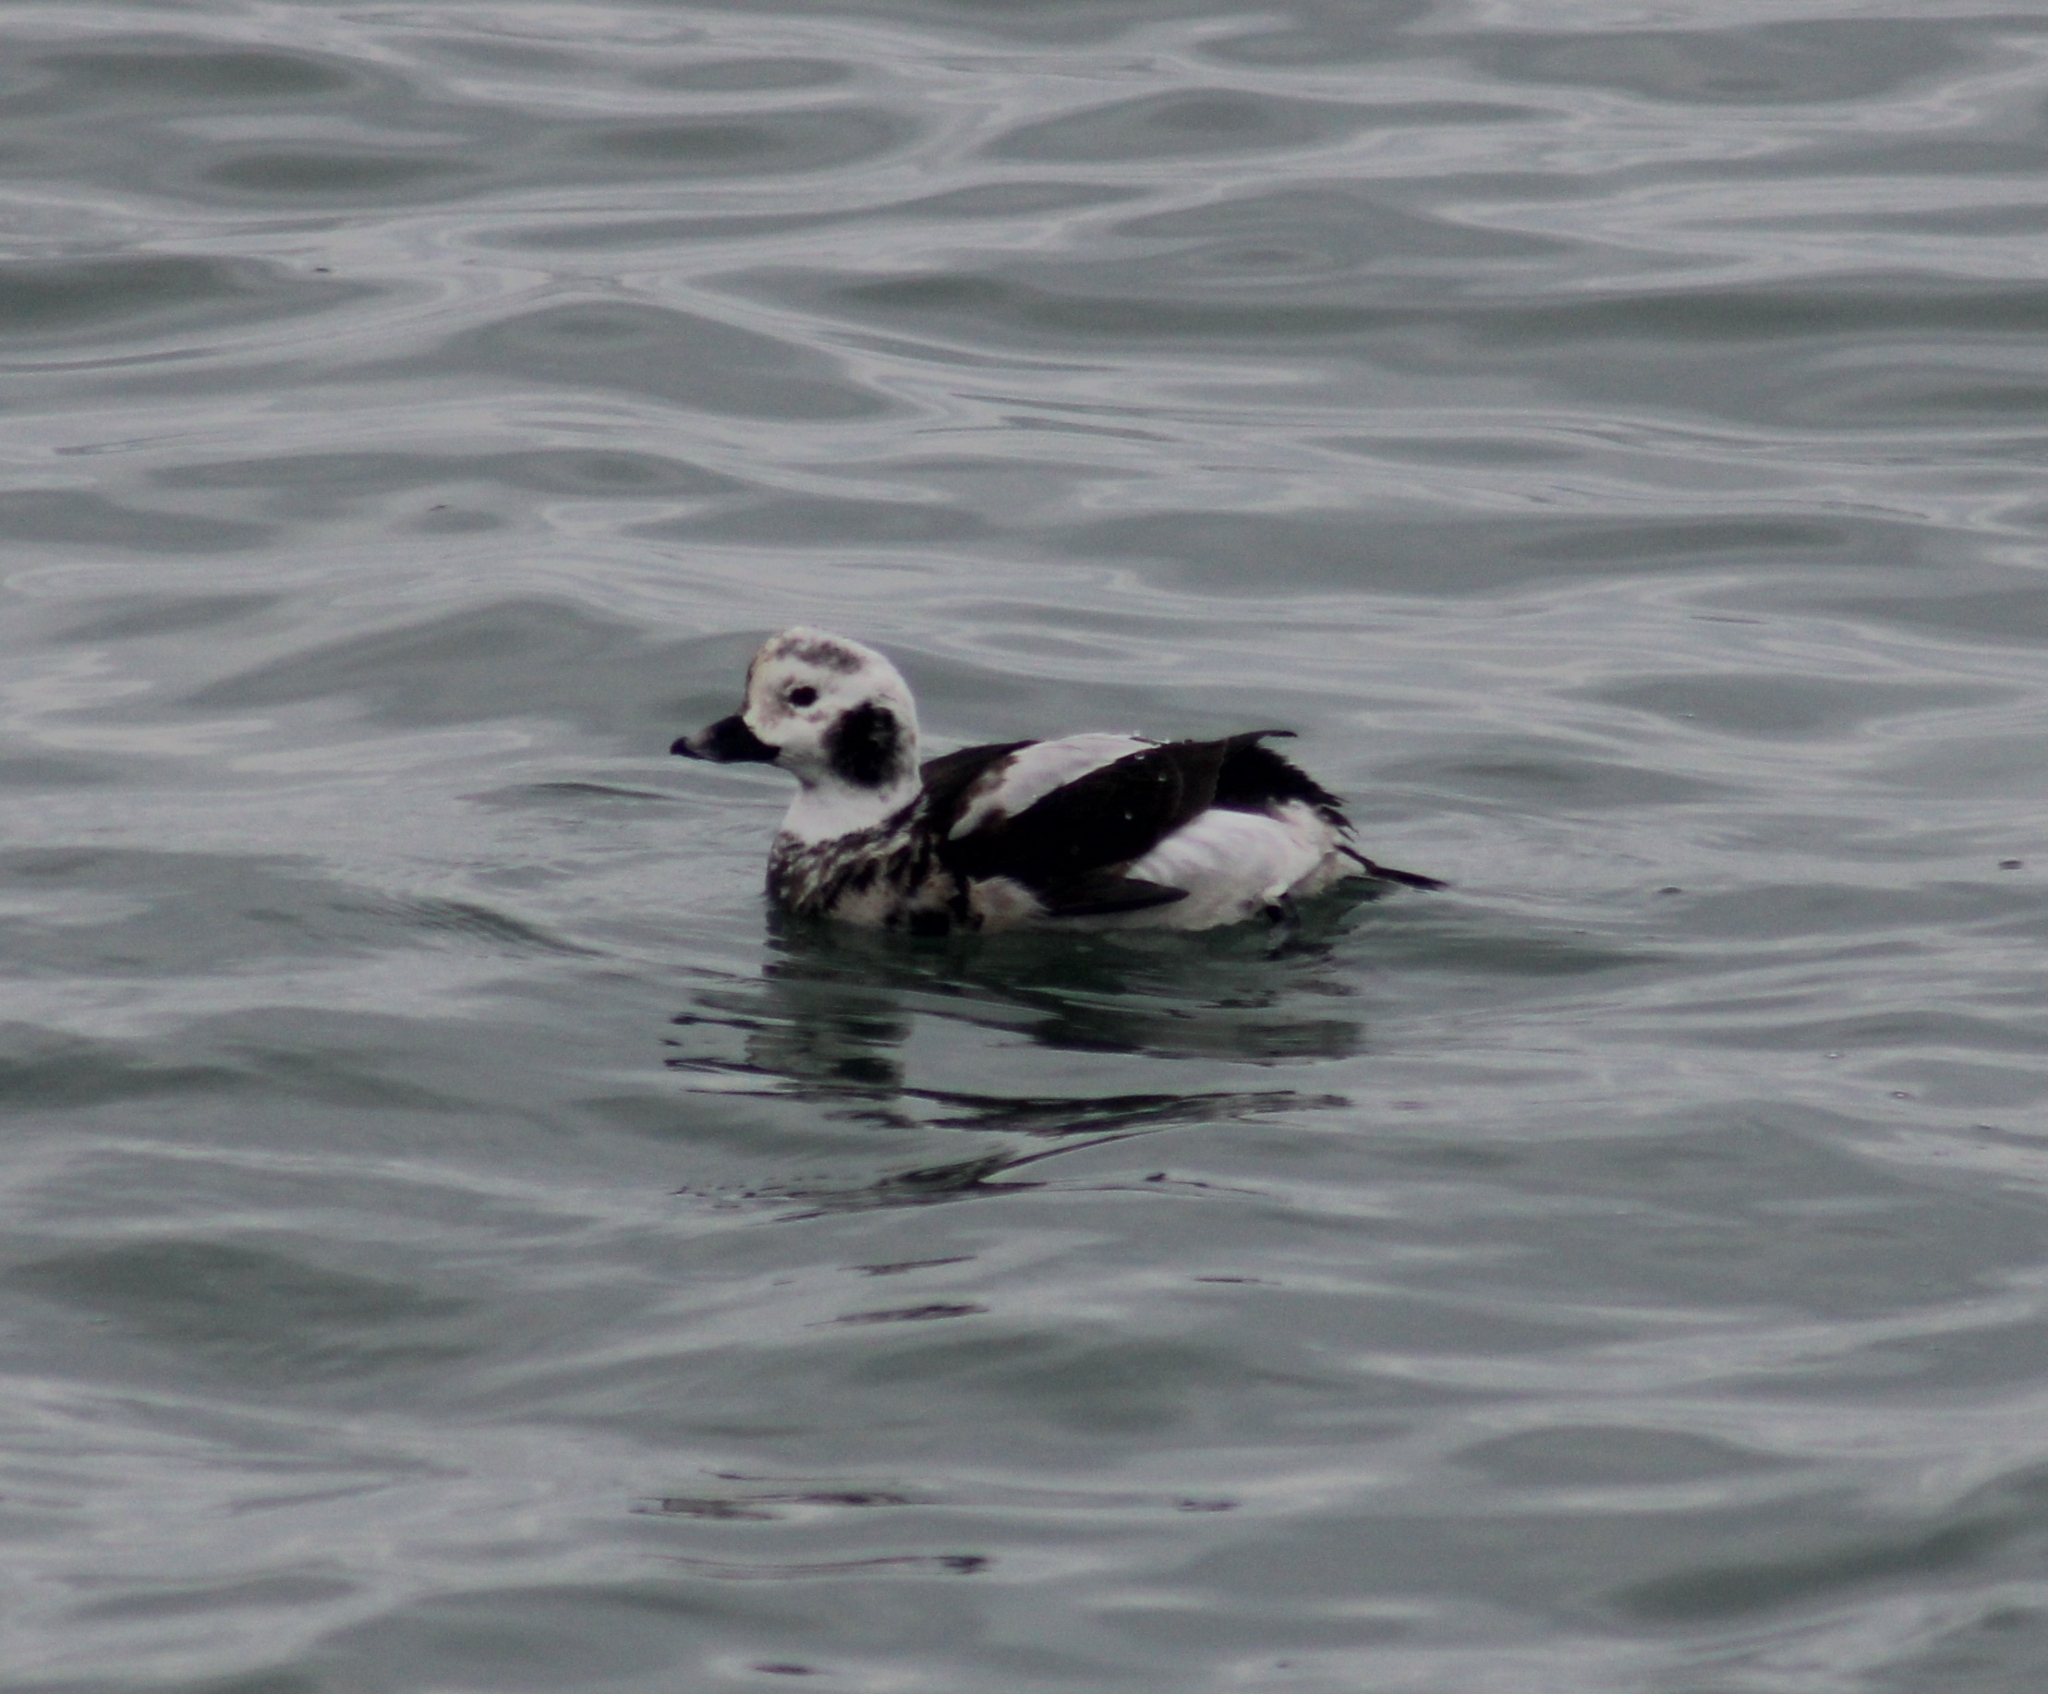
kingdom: Animalia
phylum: Chordata
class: Aves
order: Anseriformes
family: Anatidae
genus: Clangula
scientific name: Clangula hyemalis
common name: Long-tailed duck
